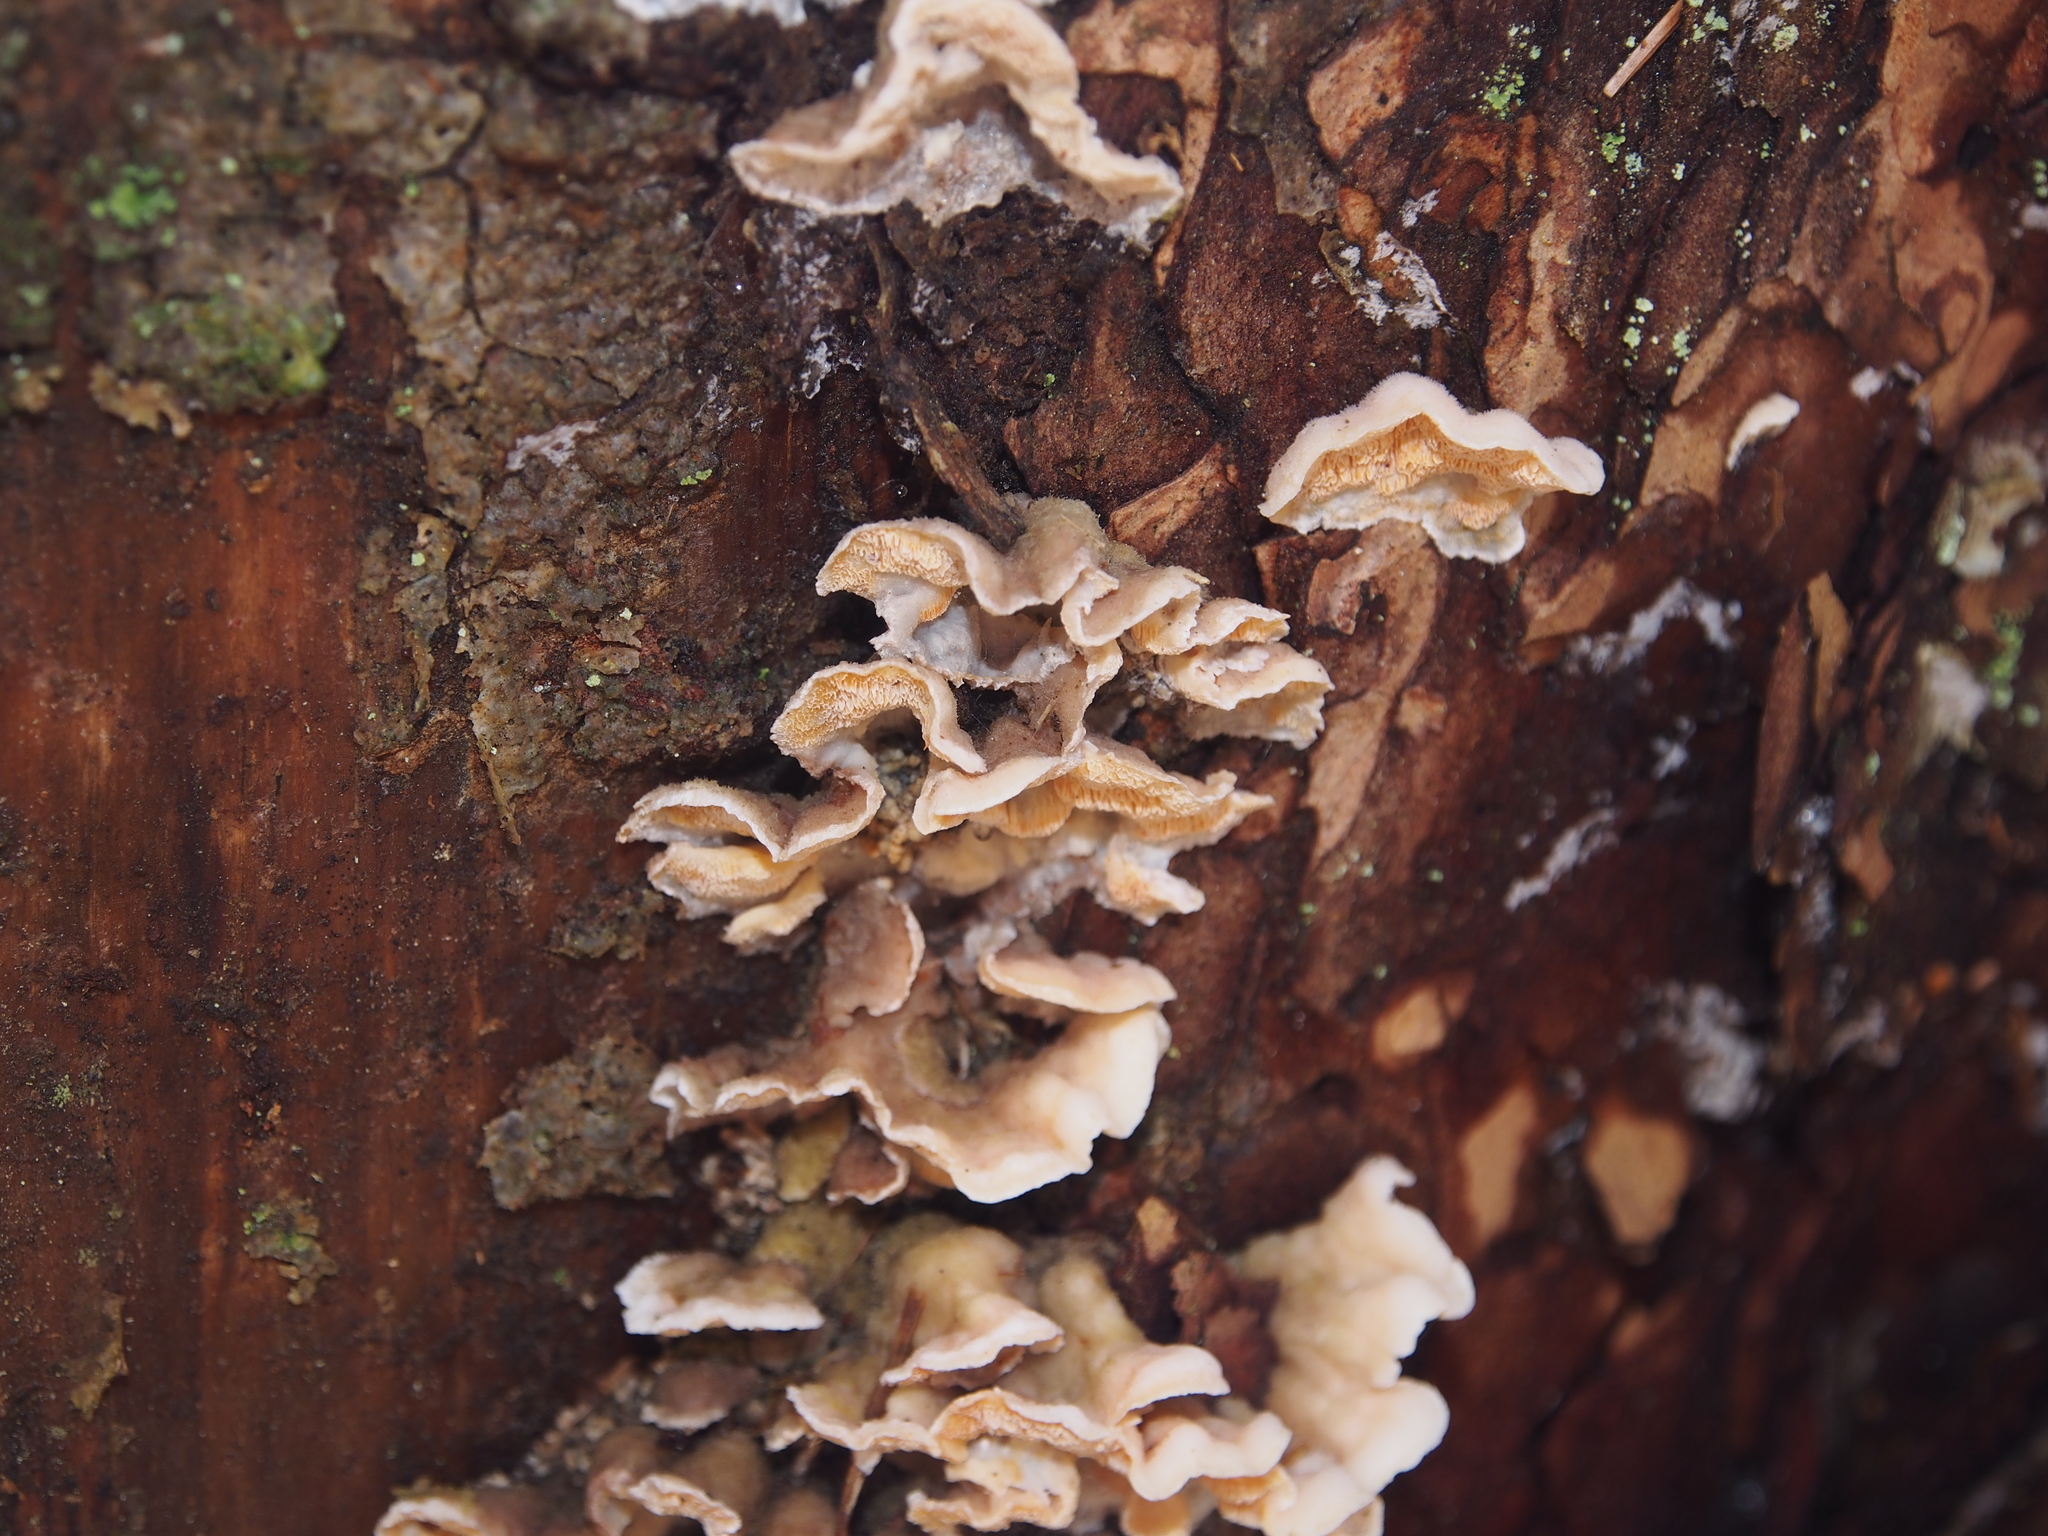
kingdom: Fungi
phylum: Basidiomycota
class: Agaricomycetes
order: Polyporales
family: Incrustoporiaceae
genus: Skeletocutis
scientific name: Skeletocutis amorpha
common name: Rusty crust
